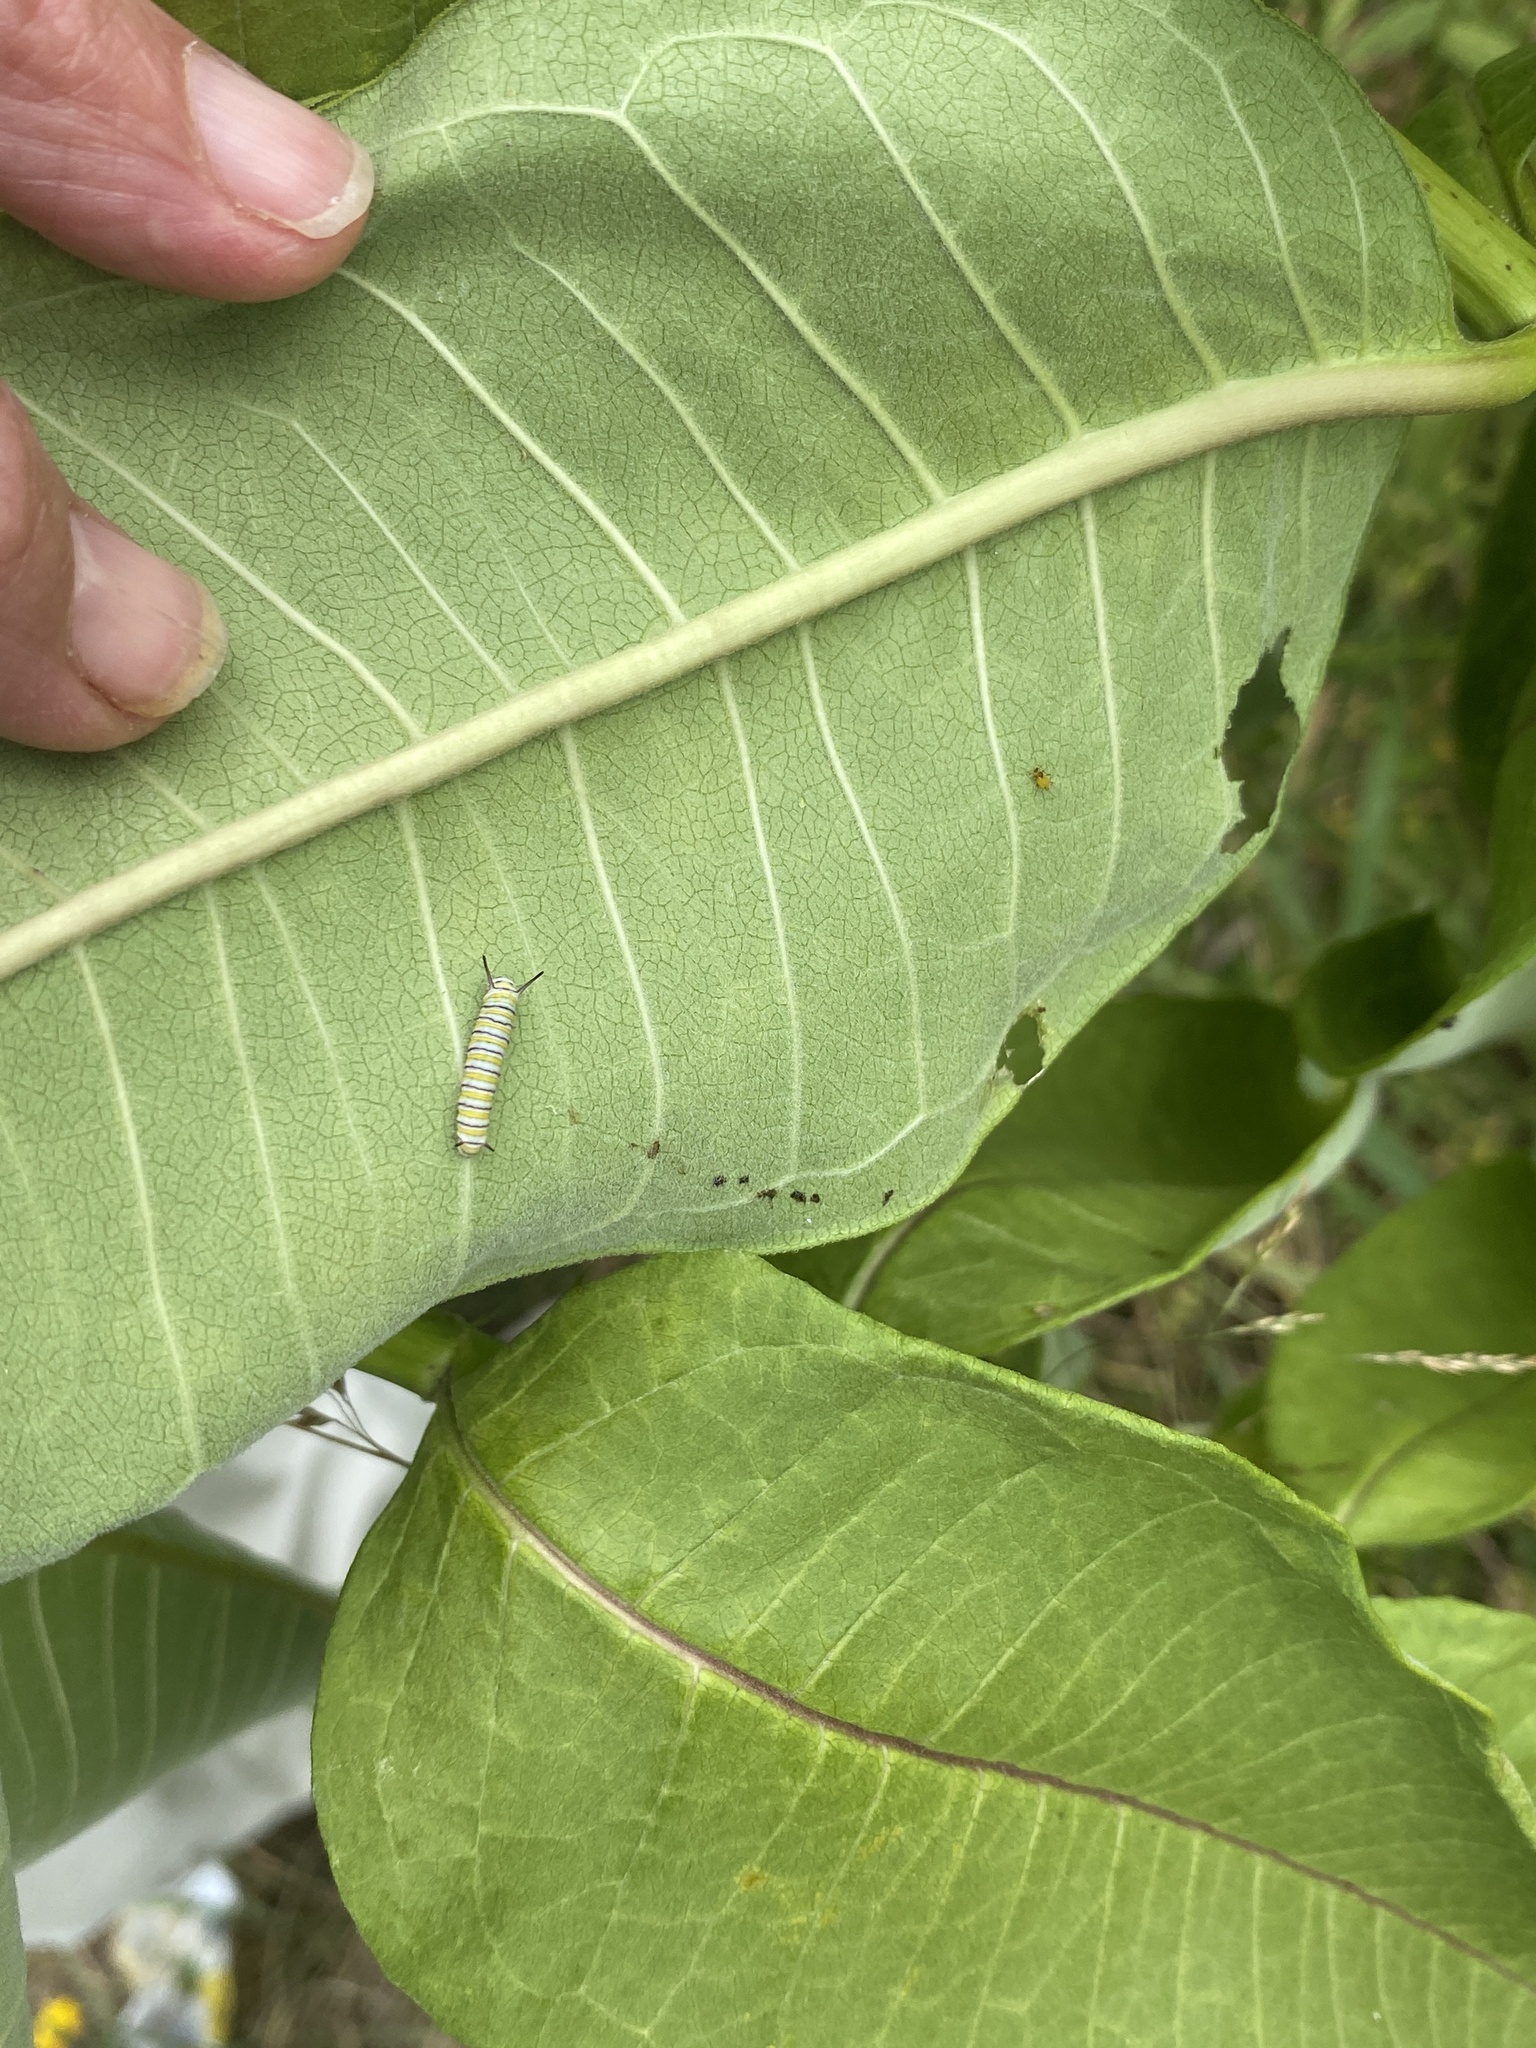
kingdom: Animalia
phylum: Arthropoda
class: Insecta
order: Lepidoptera
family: Nymphalidae
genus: Danaus
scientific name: Danaus plexippus
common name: Monarch
